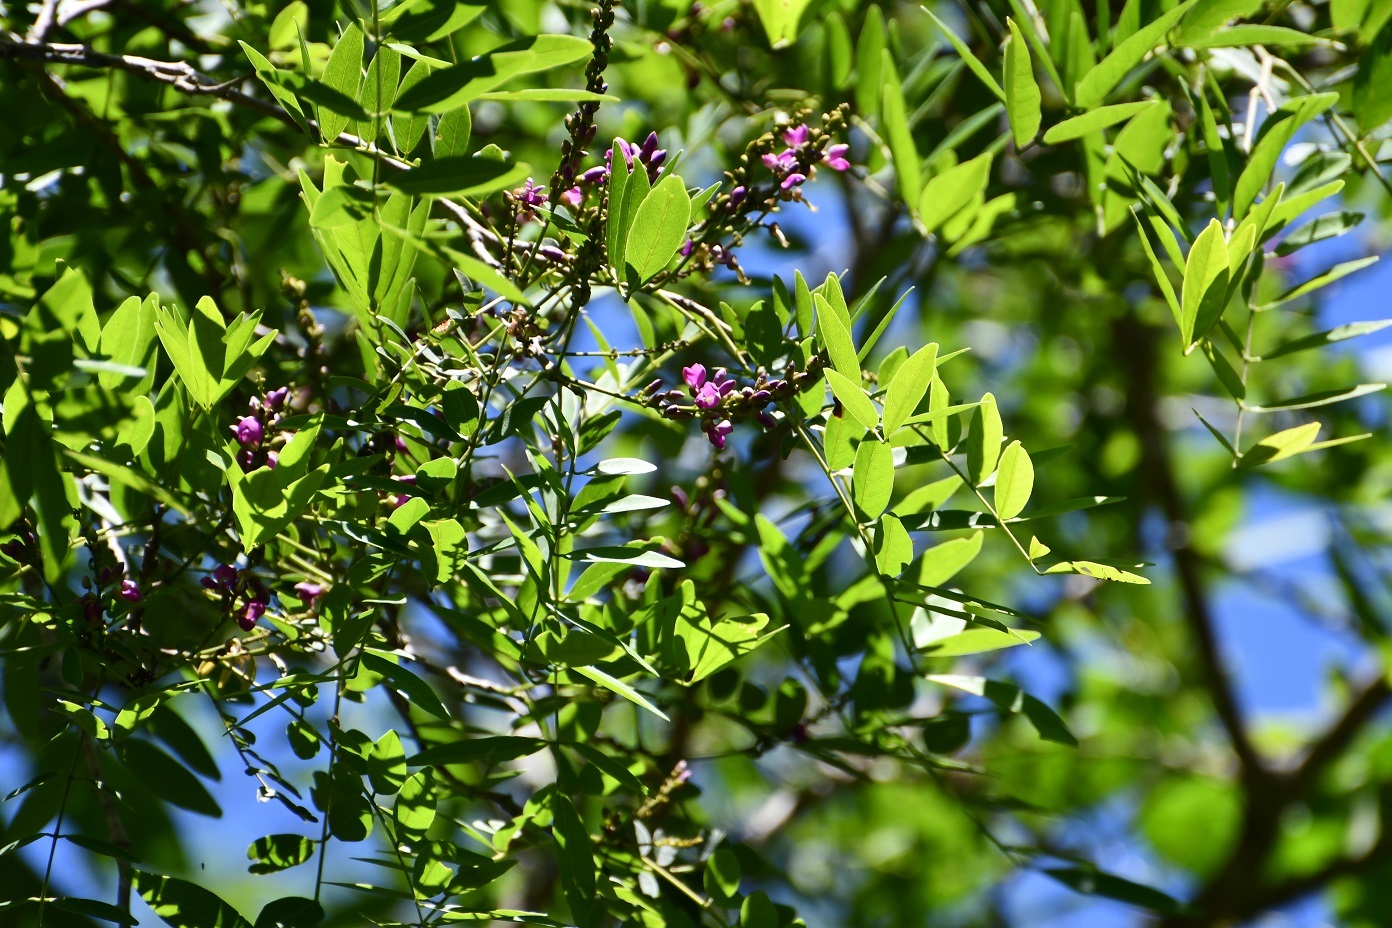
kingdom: Plantae
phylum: Tracheophyta
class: Magnoliopsida
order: Fabales
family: Fabaceae
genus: Lonchocarpus
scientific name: Lonchocarpus sumiderensis
